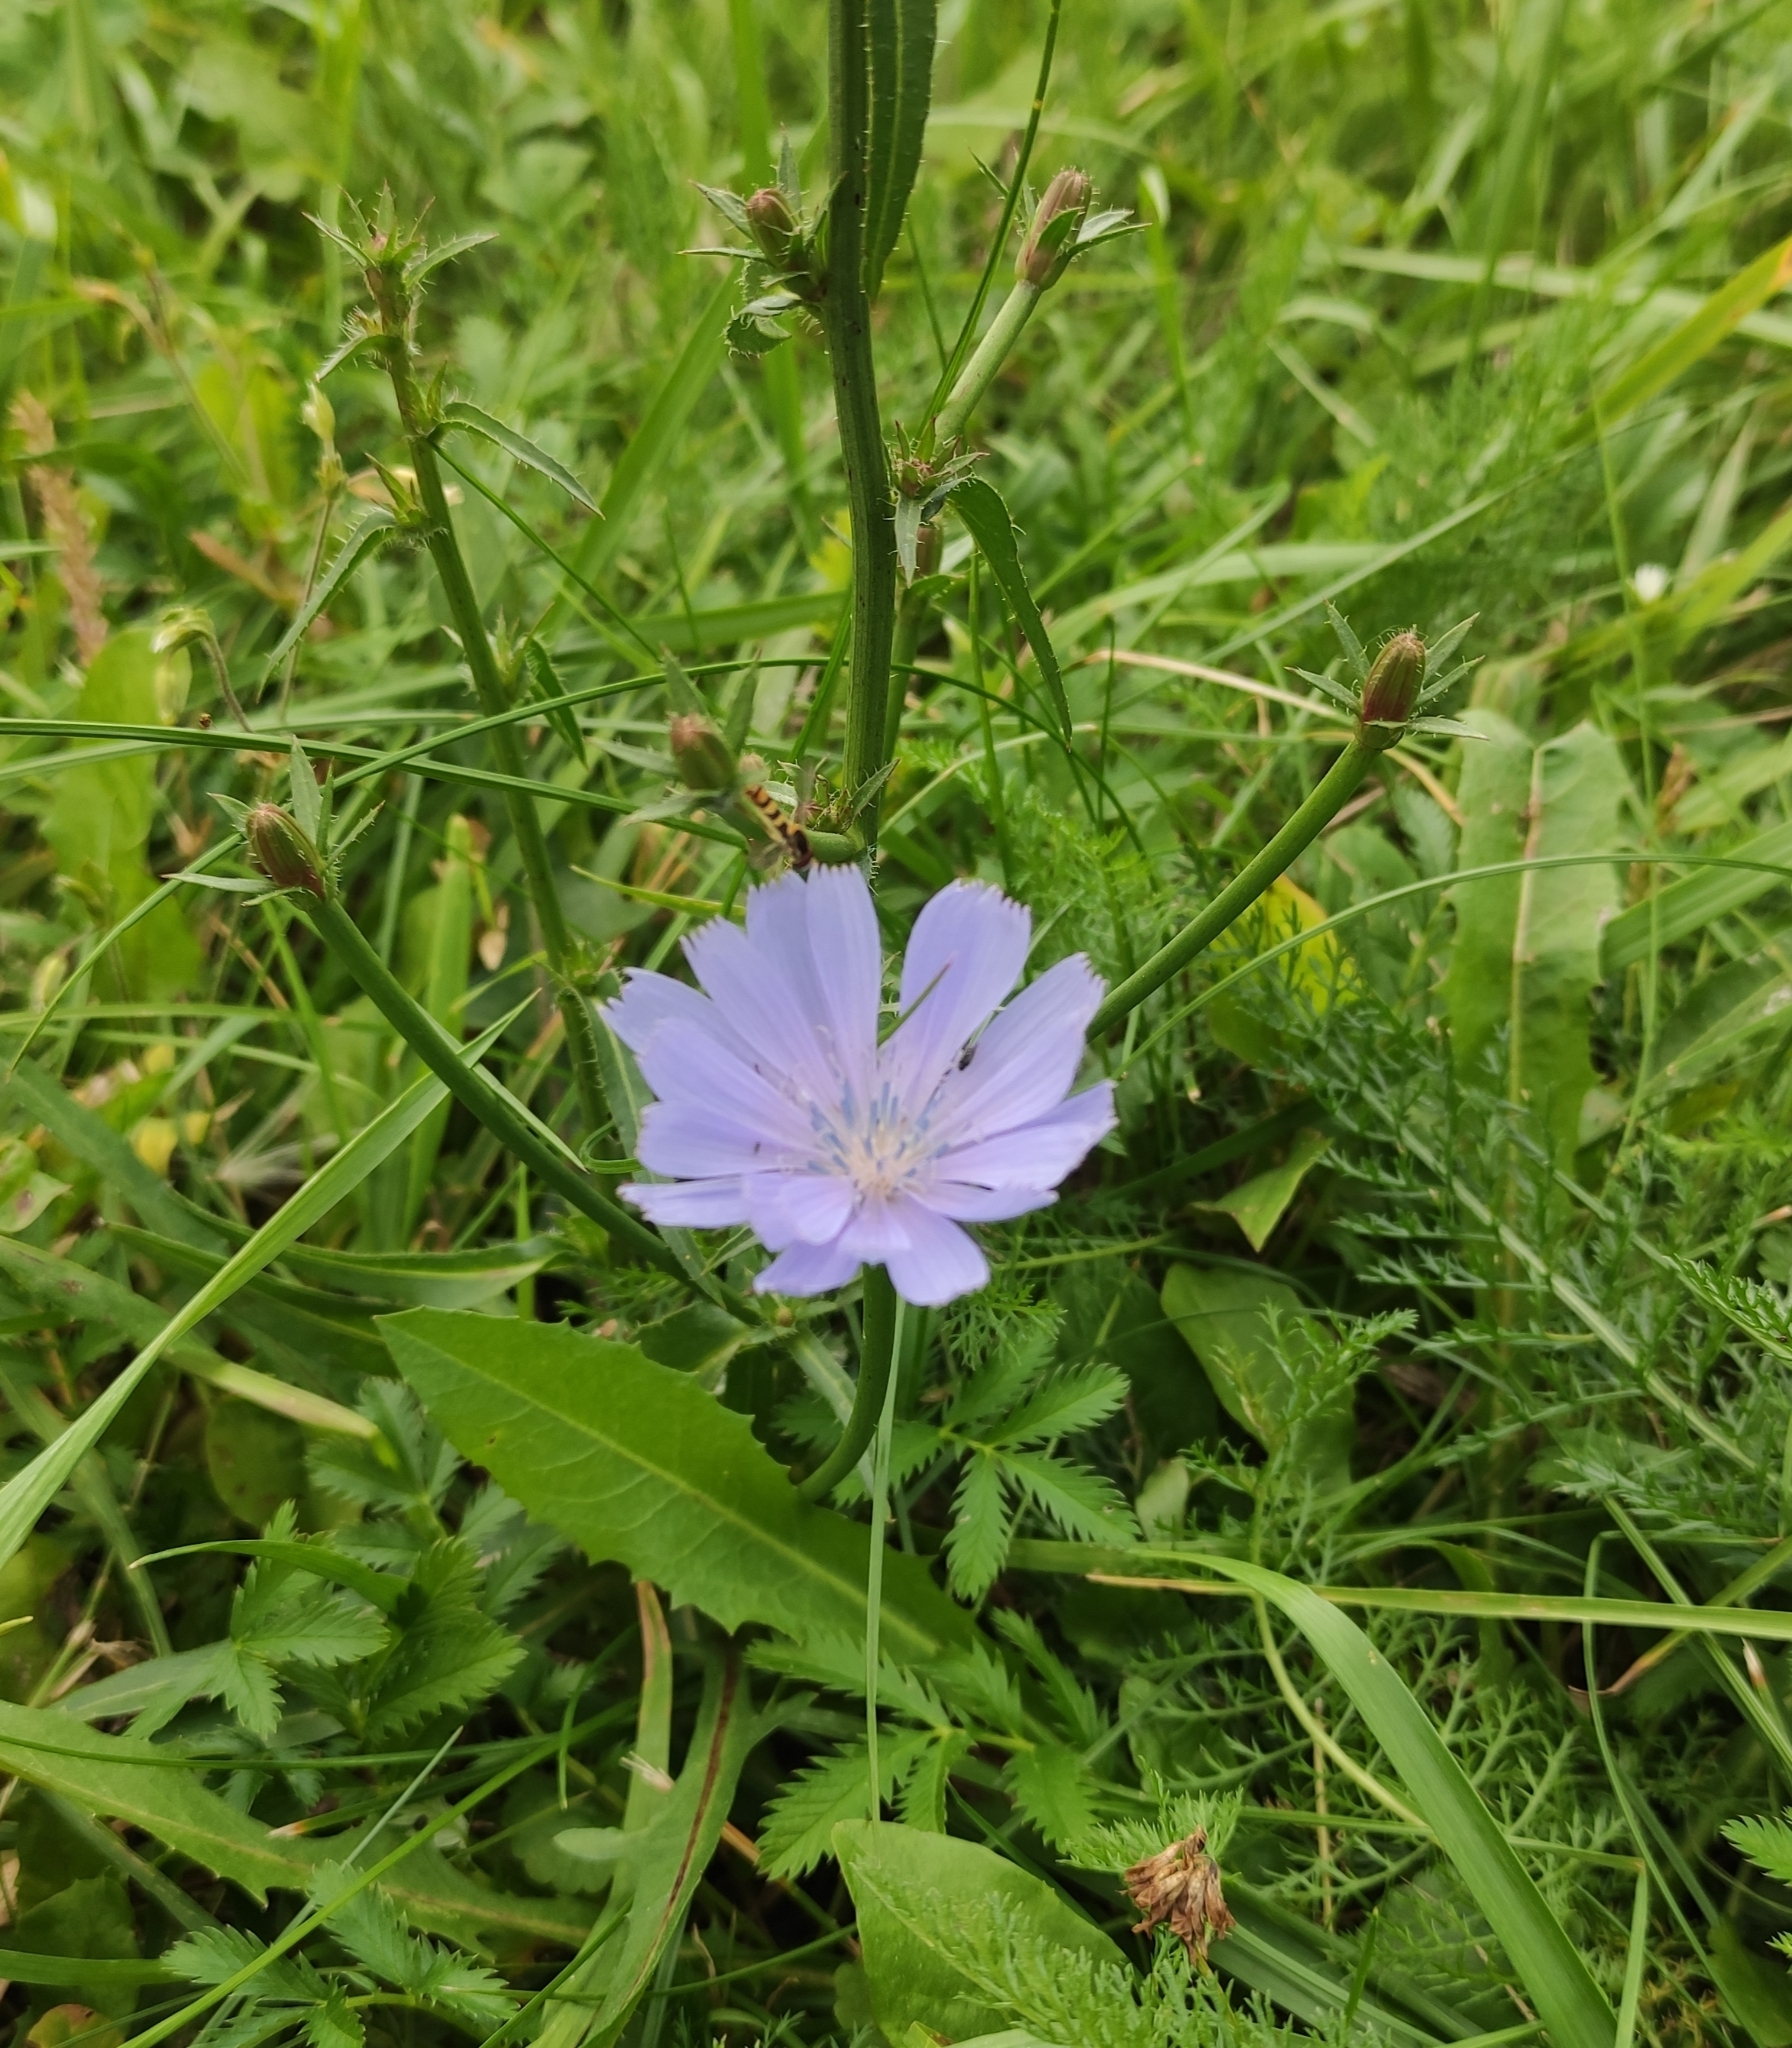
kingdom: Plantae
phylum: Tracheophyta
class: Magnoliopsida
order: Asterales
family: Asteraceae
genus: Cichorium
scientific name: Cichorium intybus
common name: Chicory
